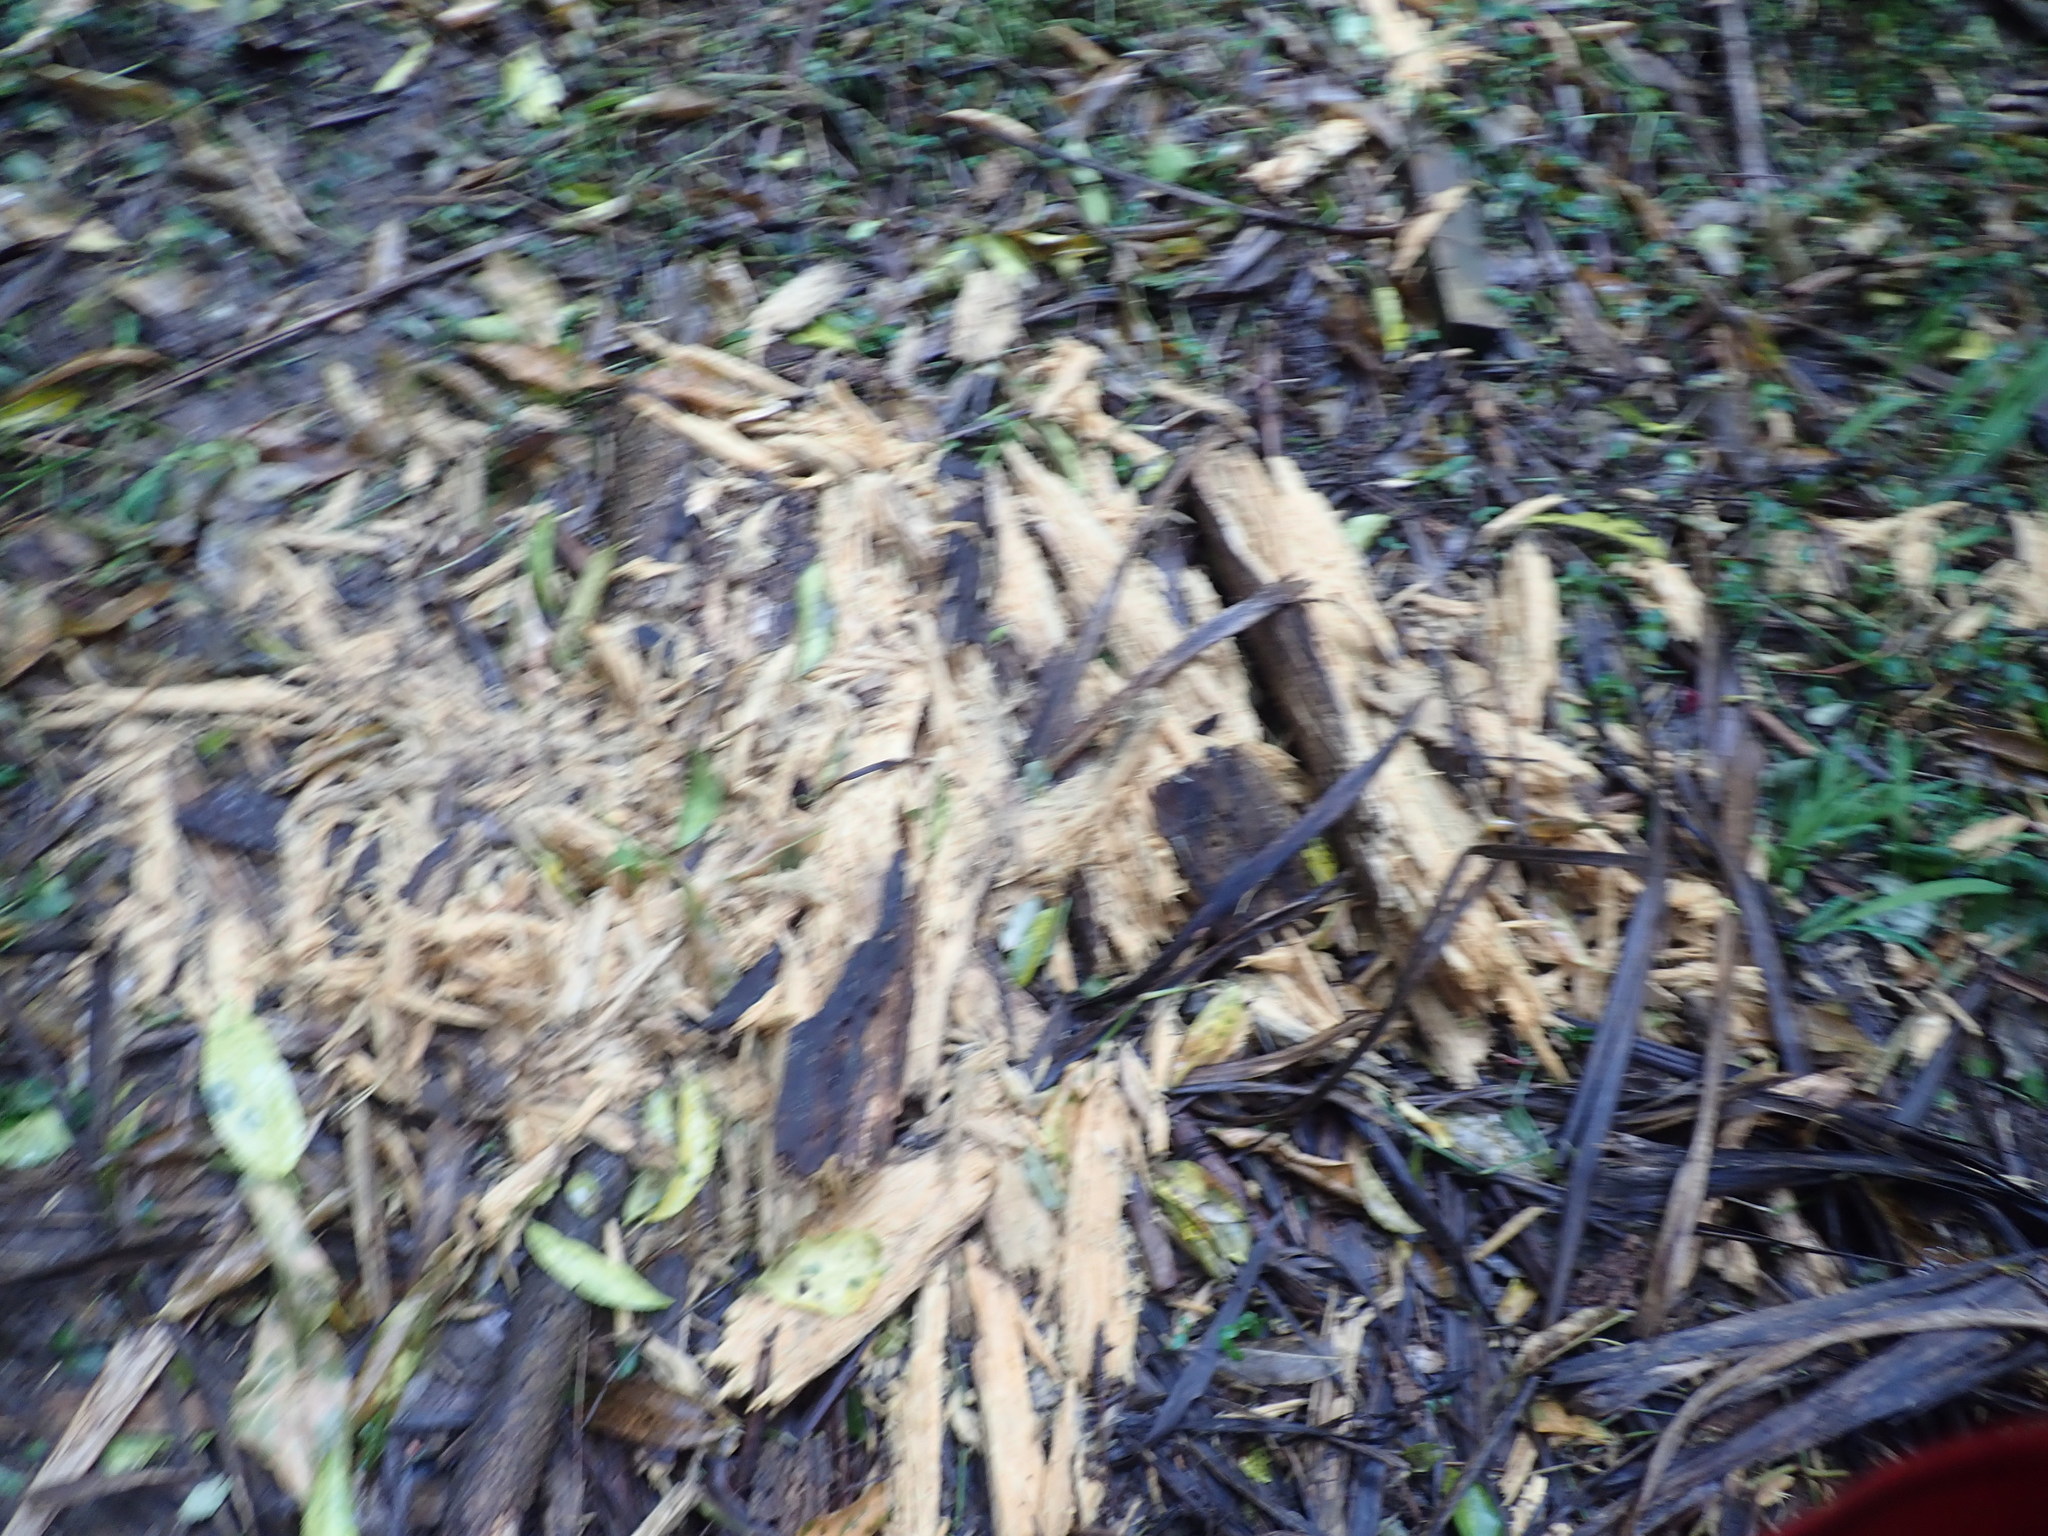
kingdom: Plantae
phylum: Tracheophyta
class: Liliopsida
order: Asparagales
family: Asparagaceae
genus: Cordyline
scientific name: Cordyline australis
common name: Cabbage-palm
